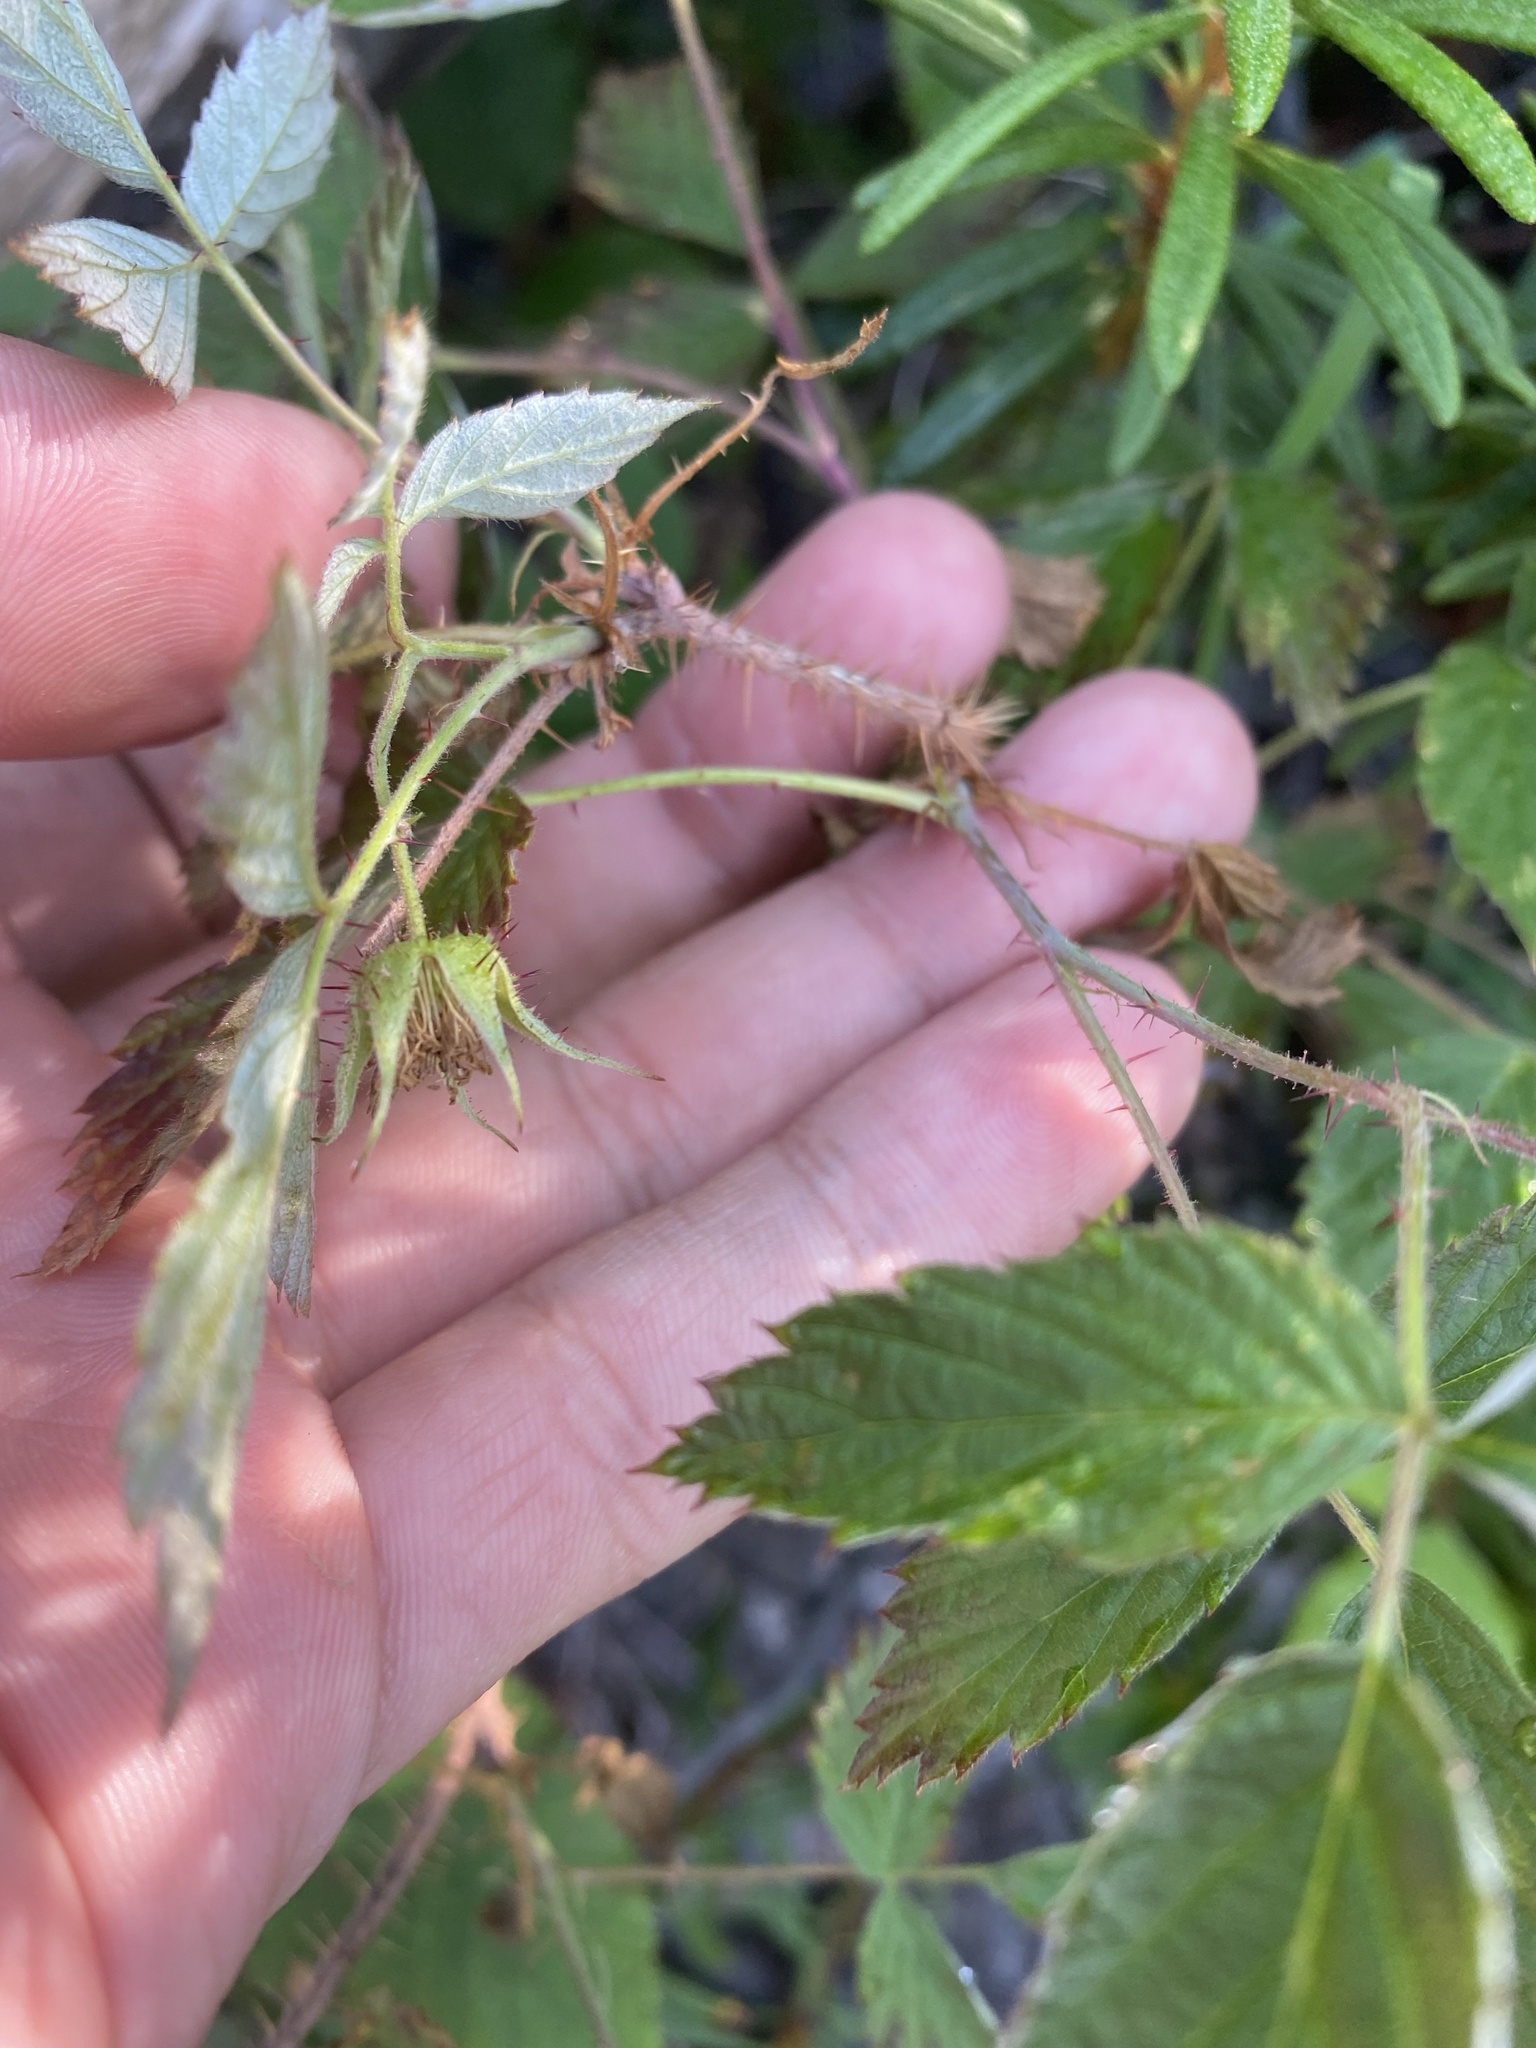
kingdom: Plantae
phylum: Tracheophyta
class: Magnoliopsida
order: Rosales
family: Rosaceae
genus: Rubus
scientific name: Rubus sachalinensis
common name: Red raspberry
